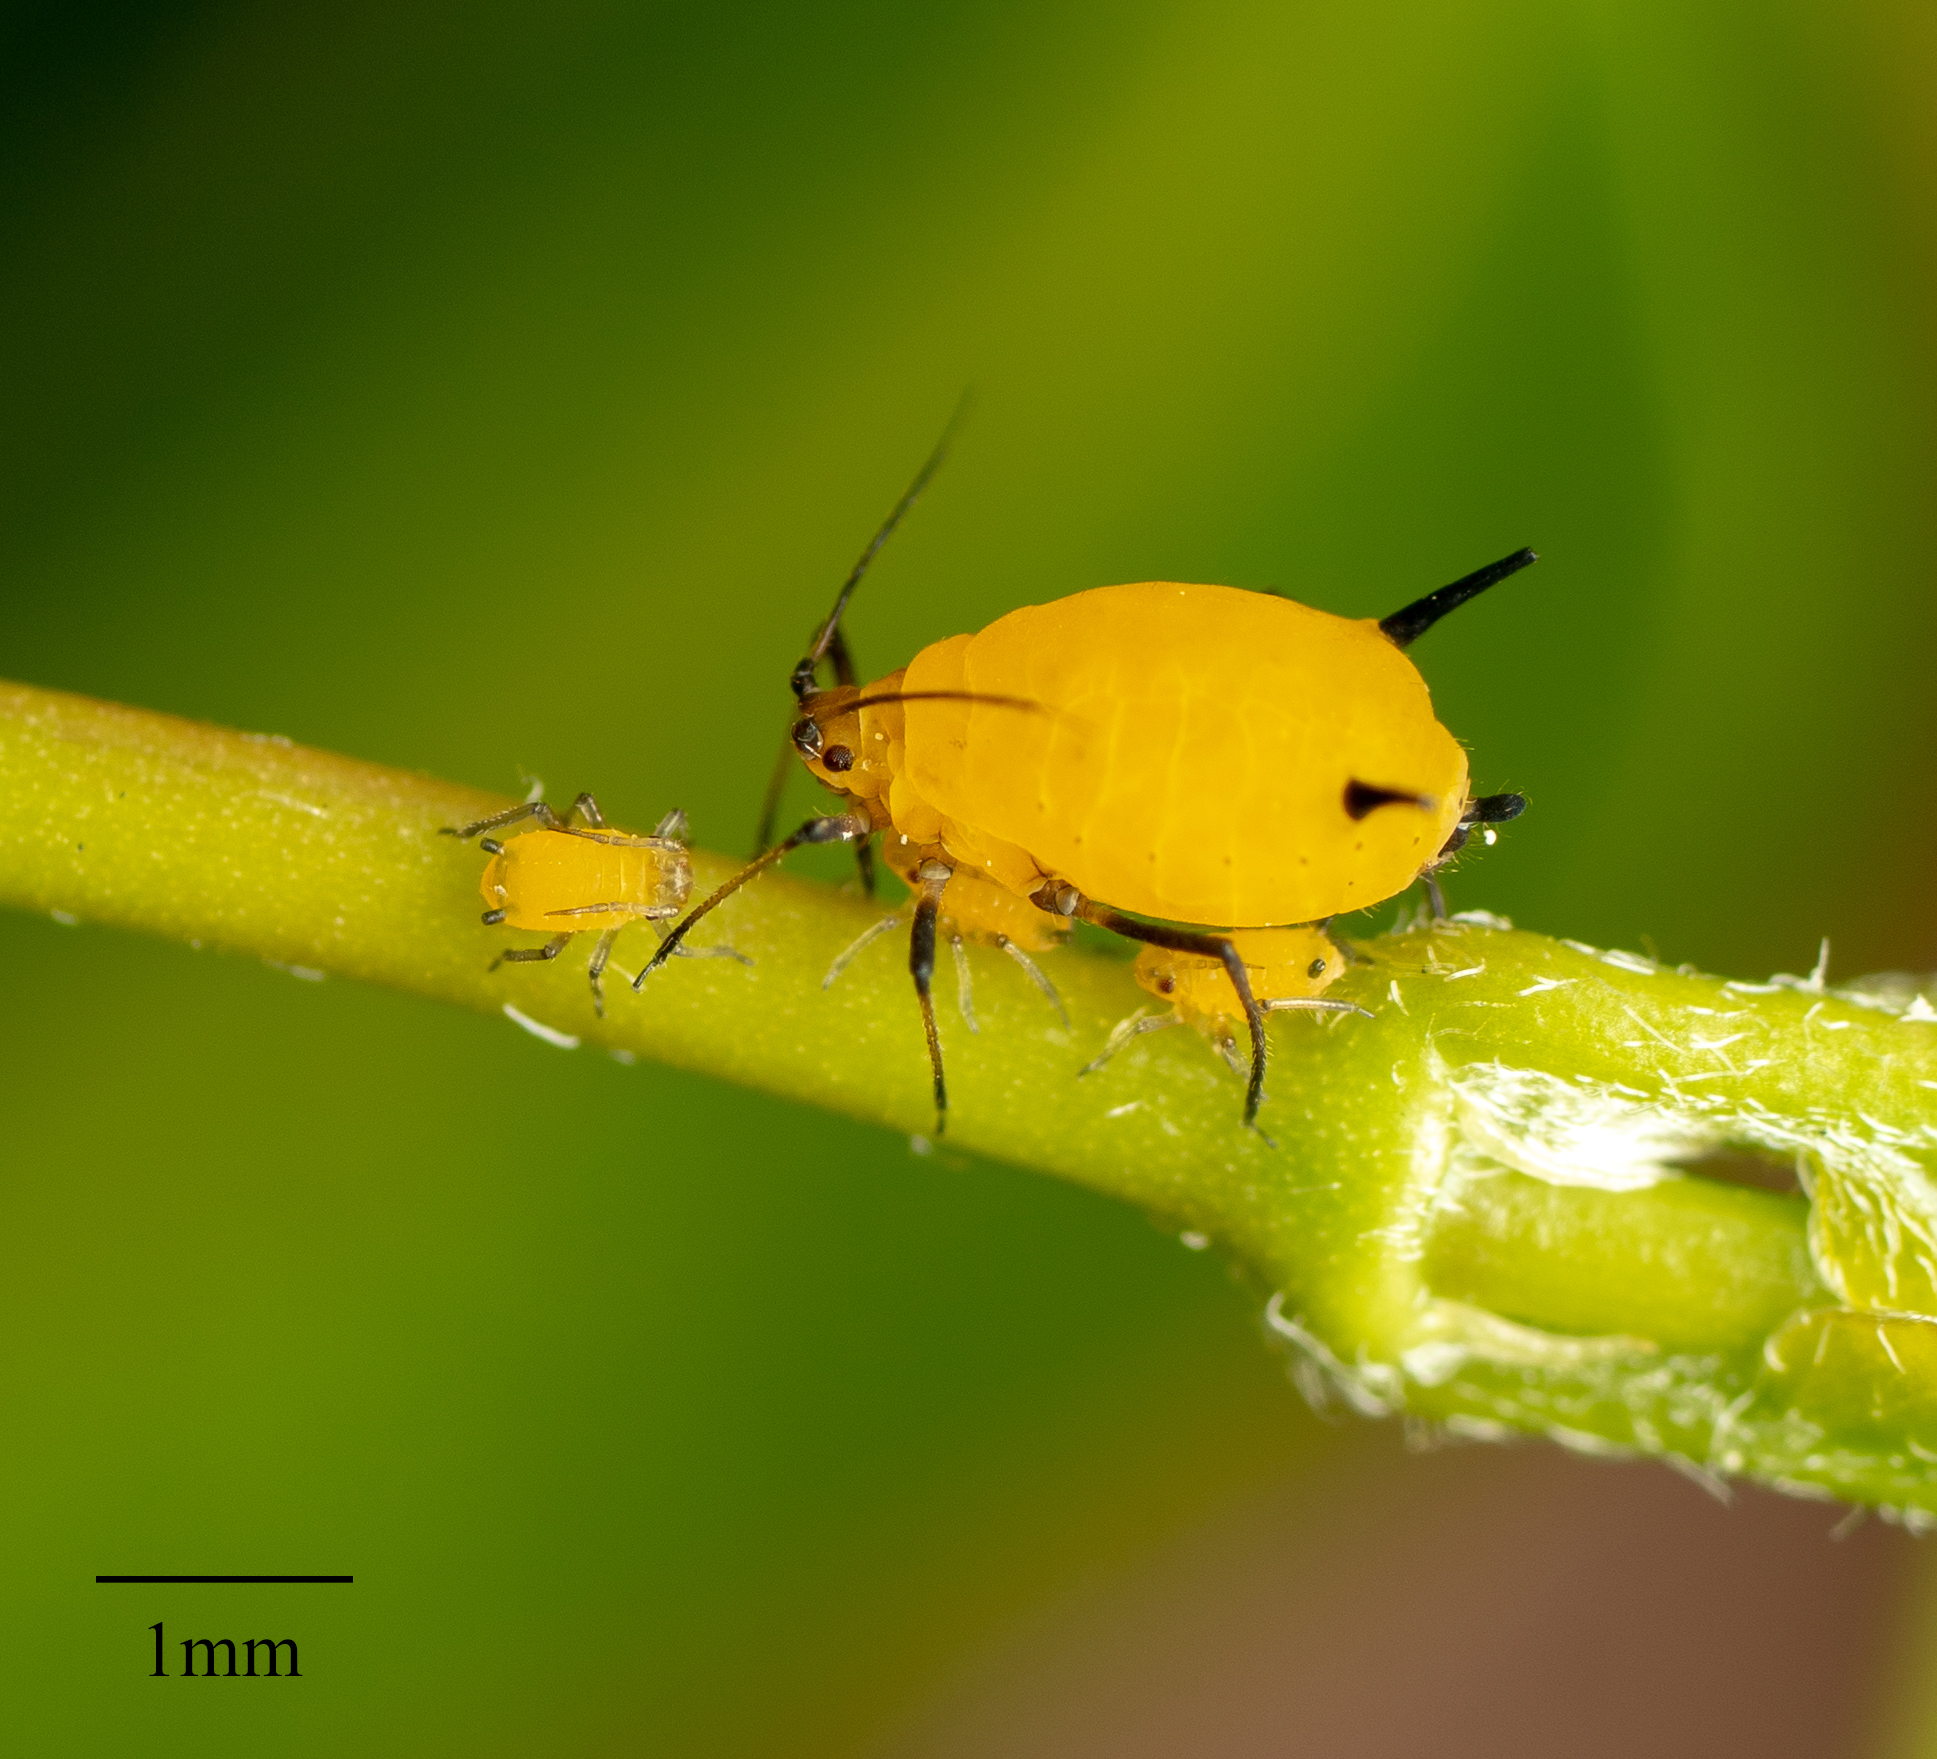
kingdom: Animalia
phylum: Arthropoda
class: Insecta
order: Hemiptera
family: Aphididae
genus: Aphis
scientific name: Aphis nerii
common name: Oleander aphid
